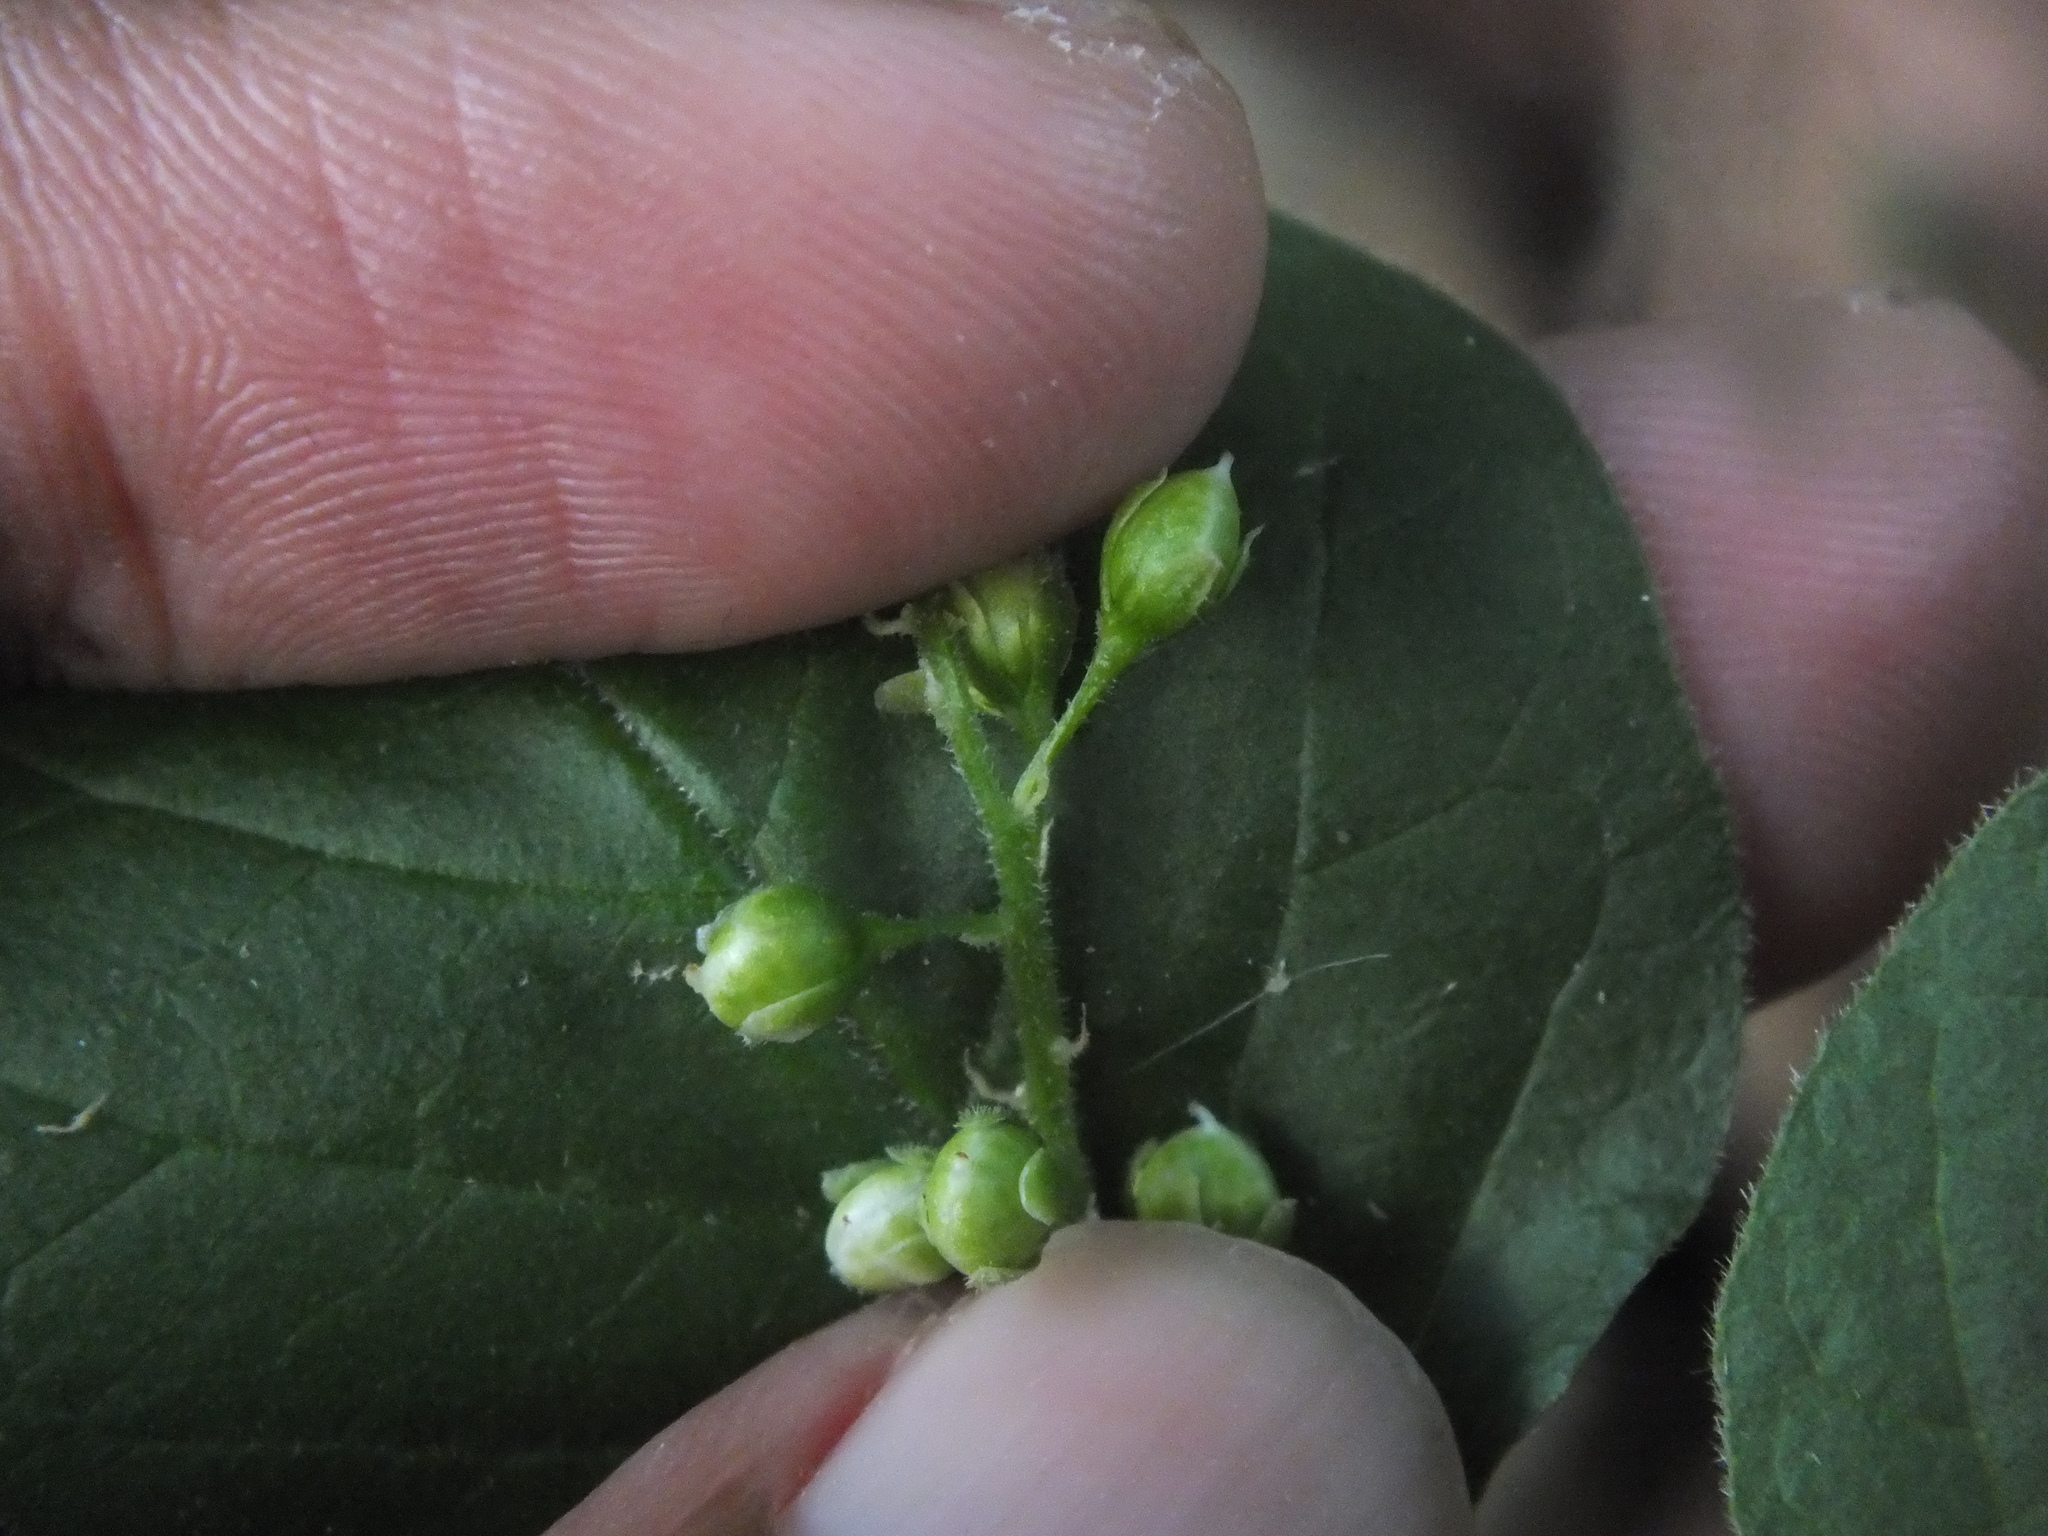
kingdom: Plantae
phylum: Tracheophyta
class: Magnoliopsida
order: Caryophyllales
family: Phytolaccaceae
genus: Rivina
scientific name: Rivina humilis
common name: Rougeplant
